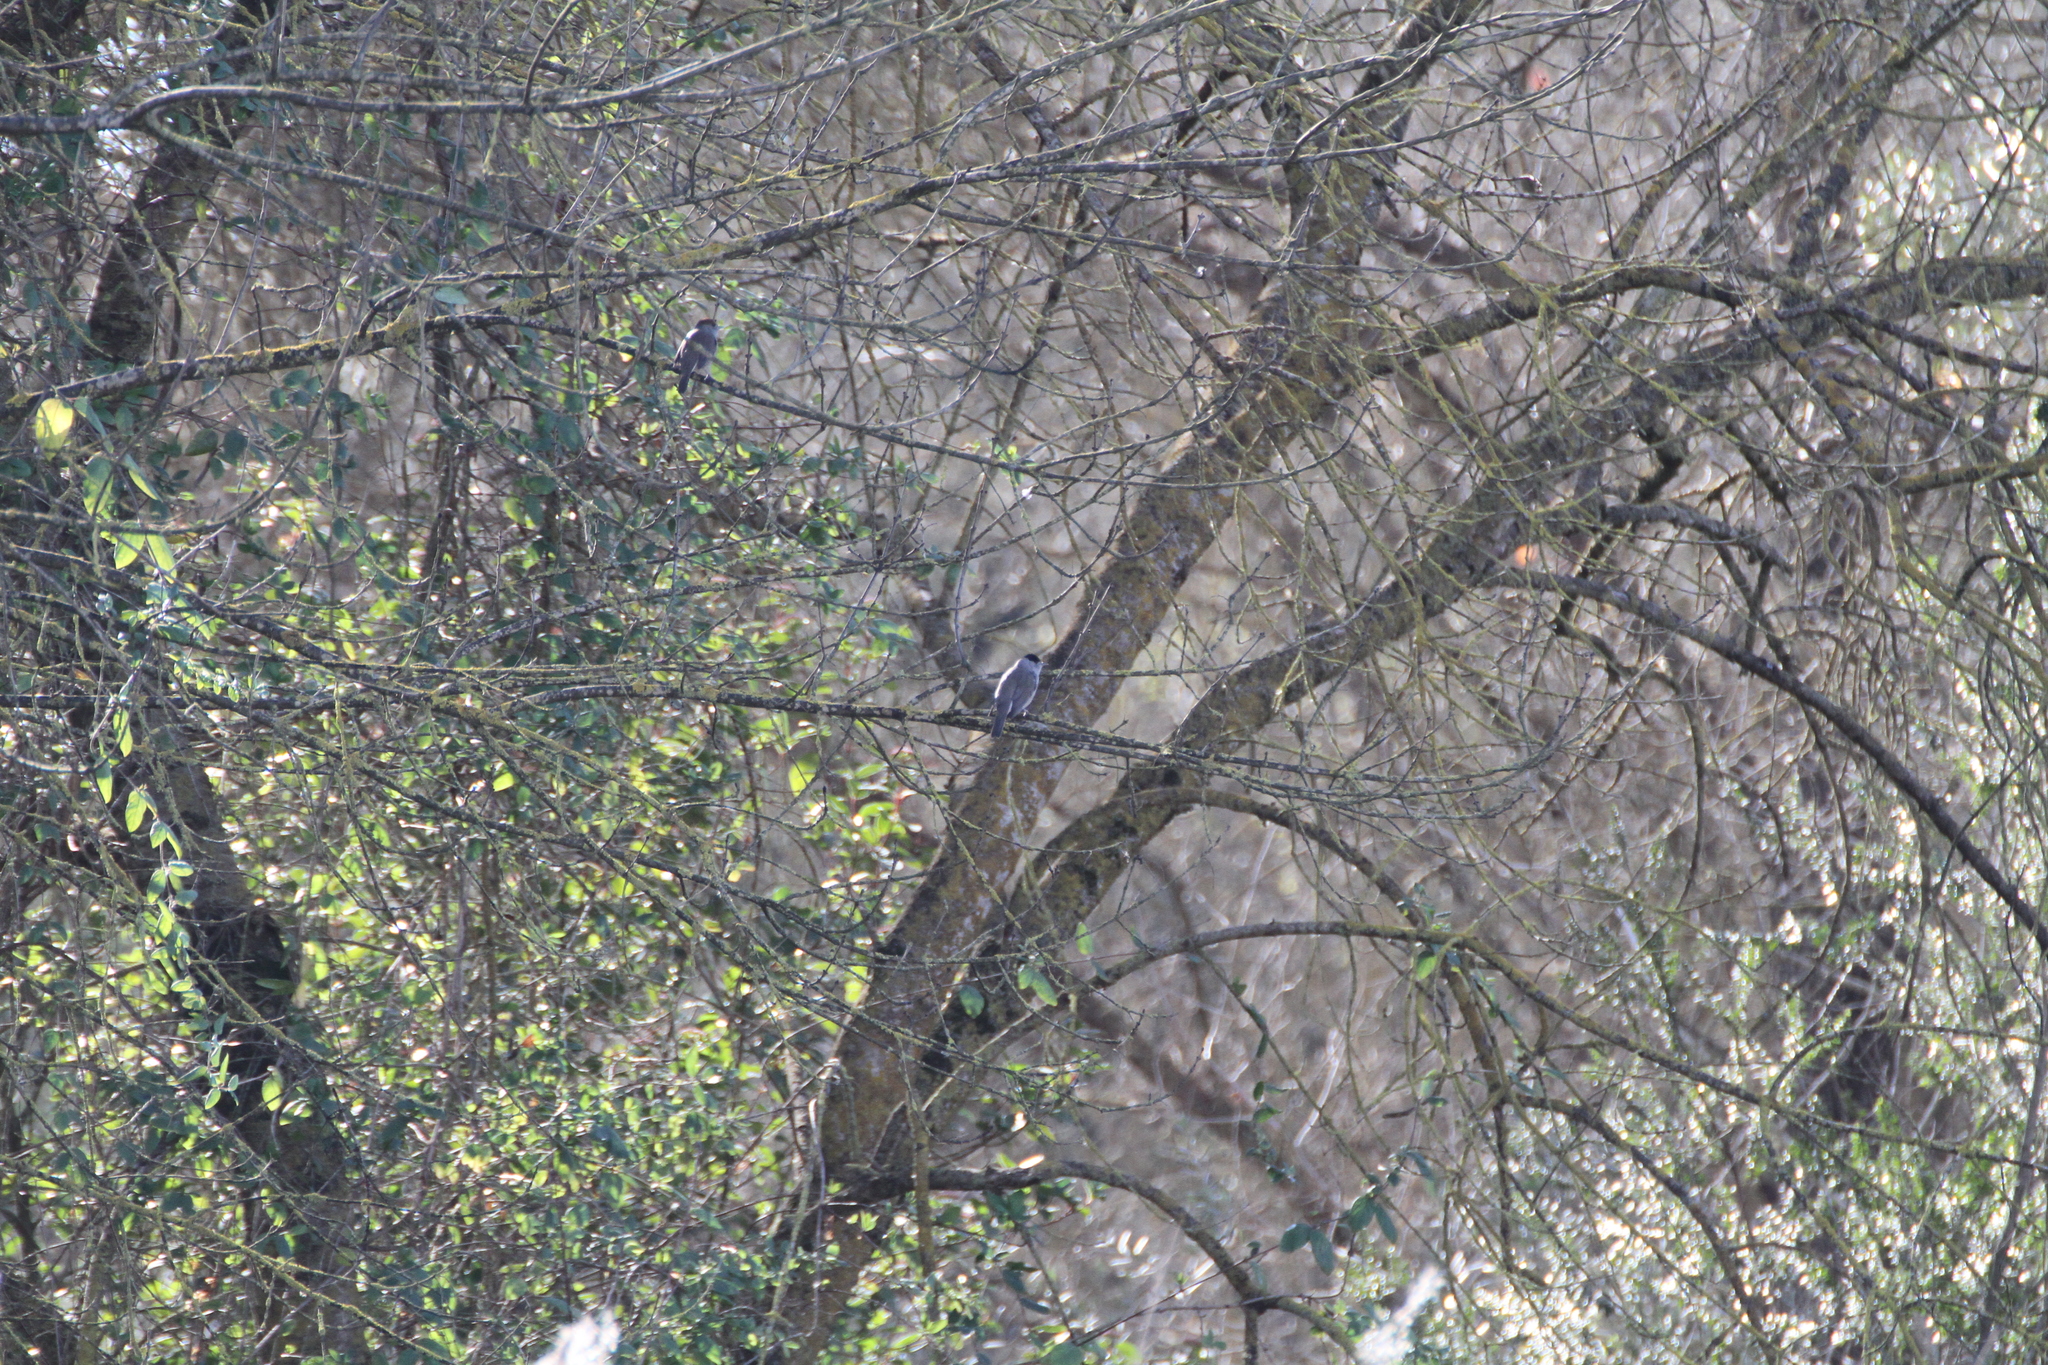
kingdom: Animalia
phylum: Chordata
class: Aves
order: Passeriformes
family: Sylviidae
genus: Sylvia
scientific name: Sylvia atricapilla
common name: Eurasian blackcap
